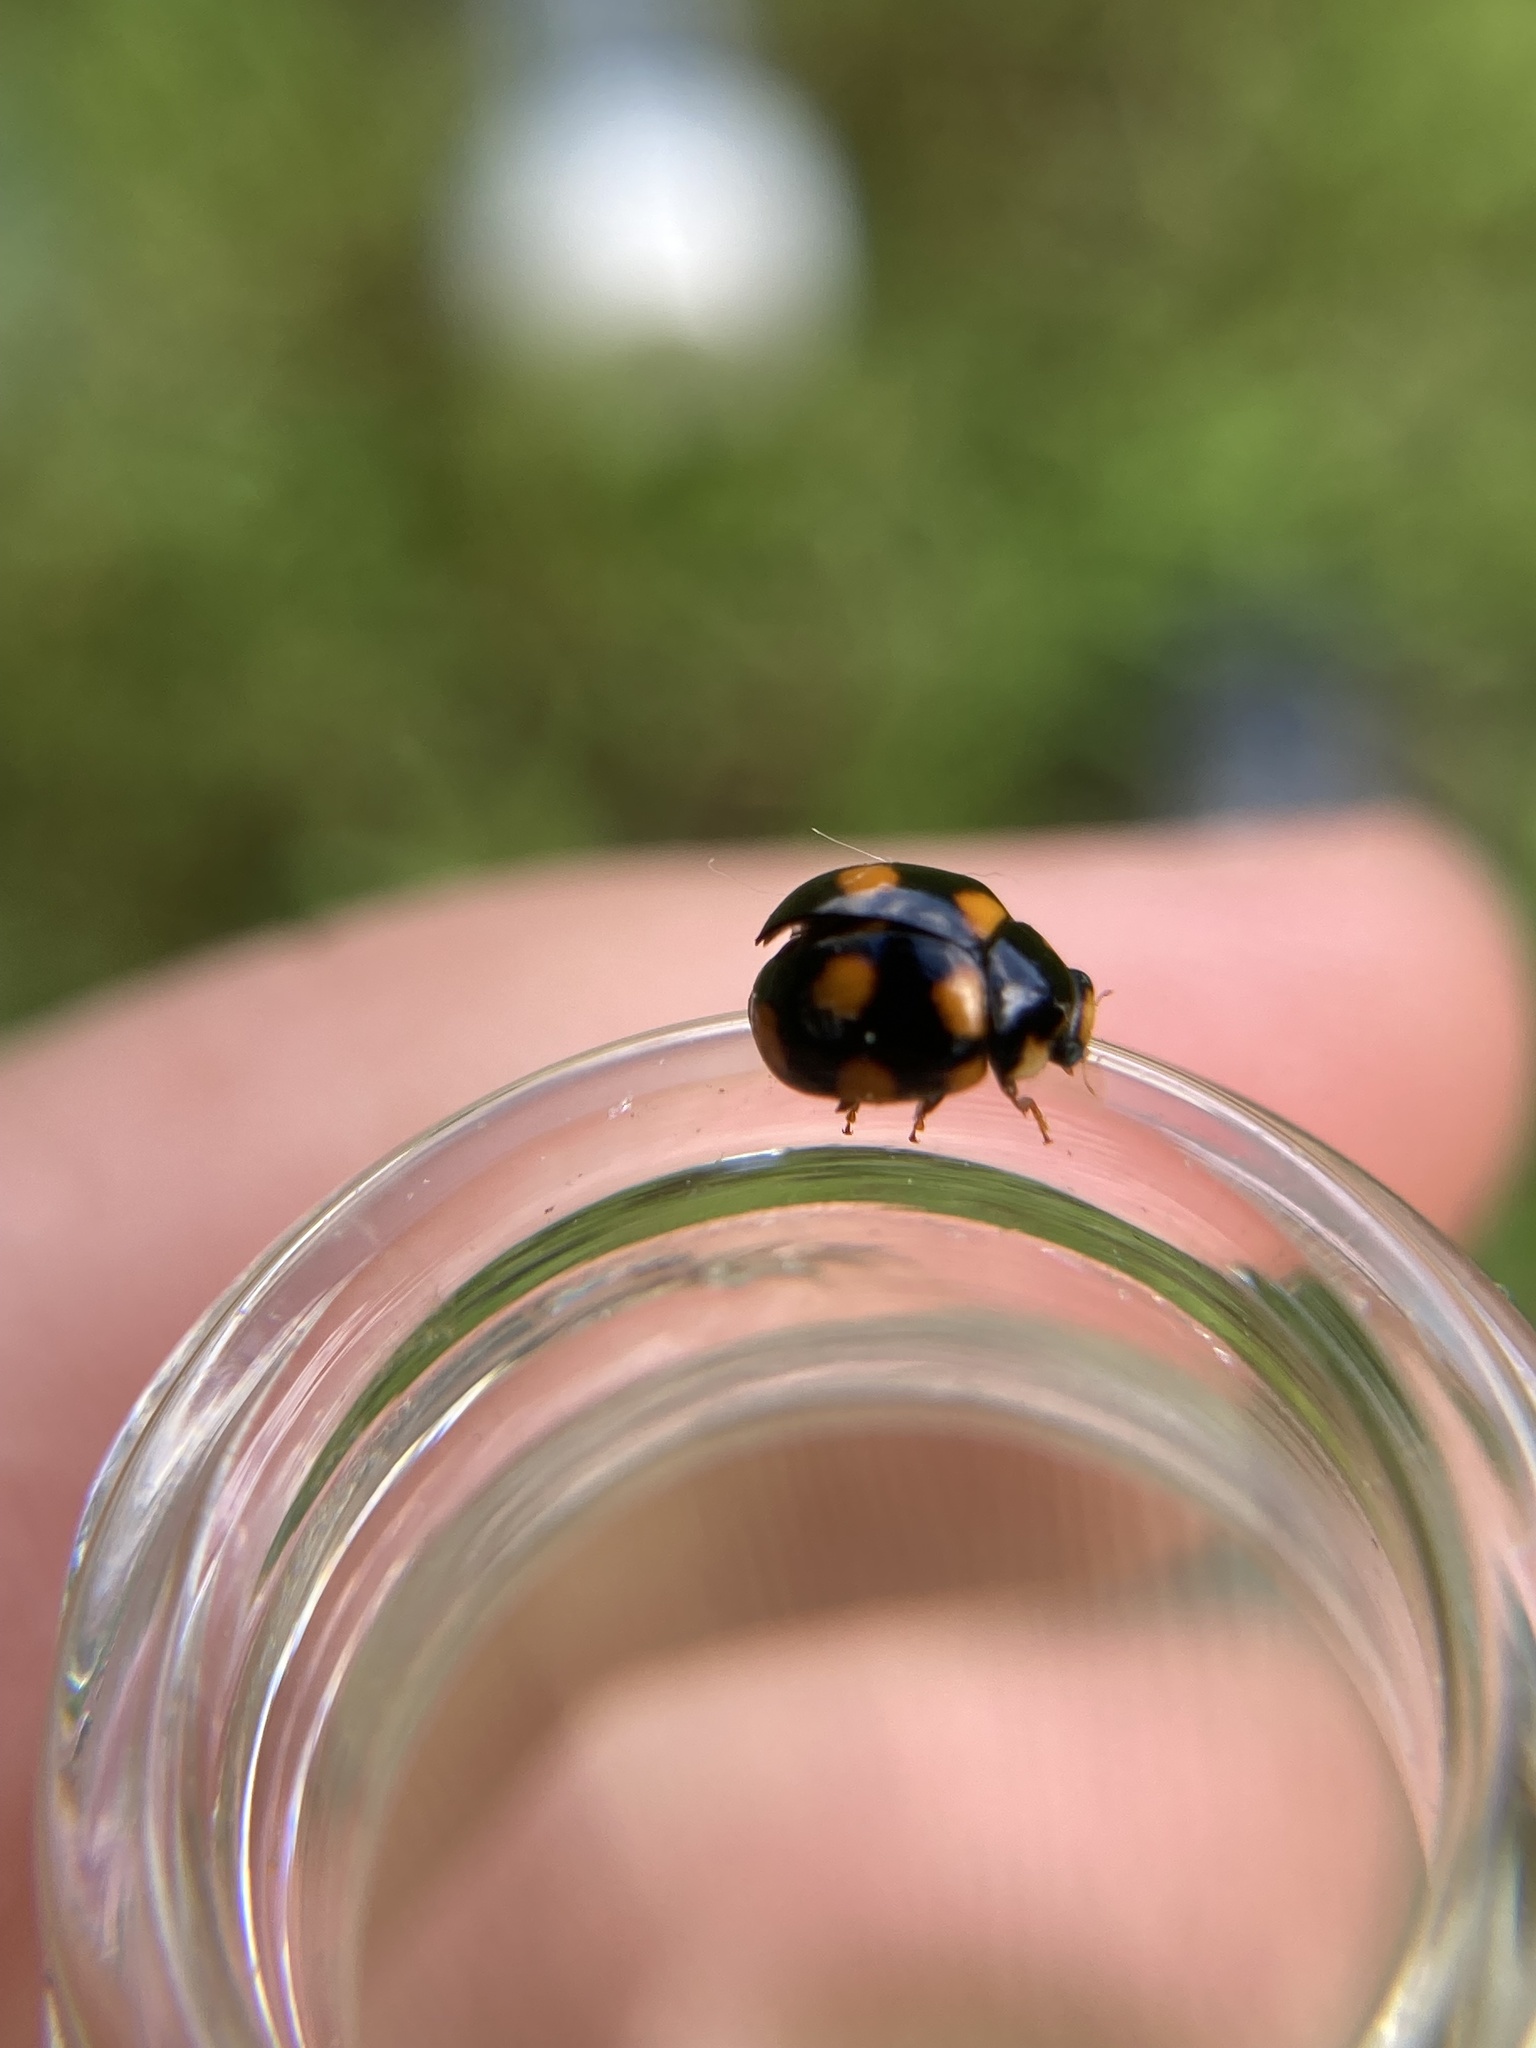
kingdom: Animalia
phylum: Arthropoda
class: Insecta
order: Coleoptera
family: Coccinellidae
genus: Brachiacantha
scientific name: Brachiacantha ursina
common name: Ursine spurleg lady beetle
